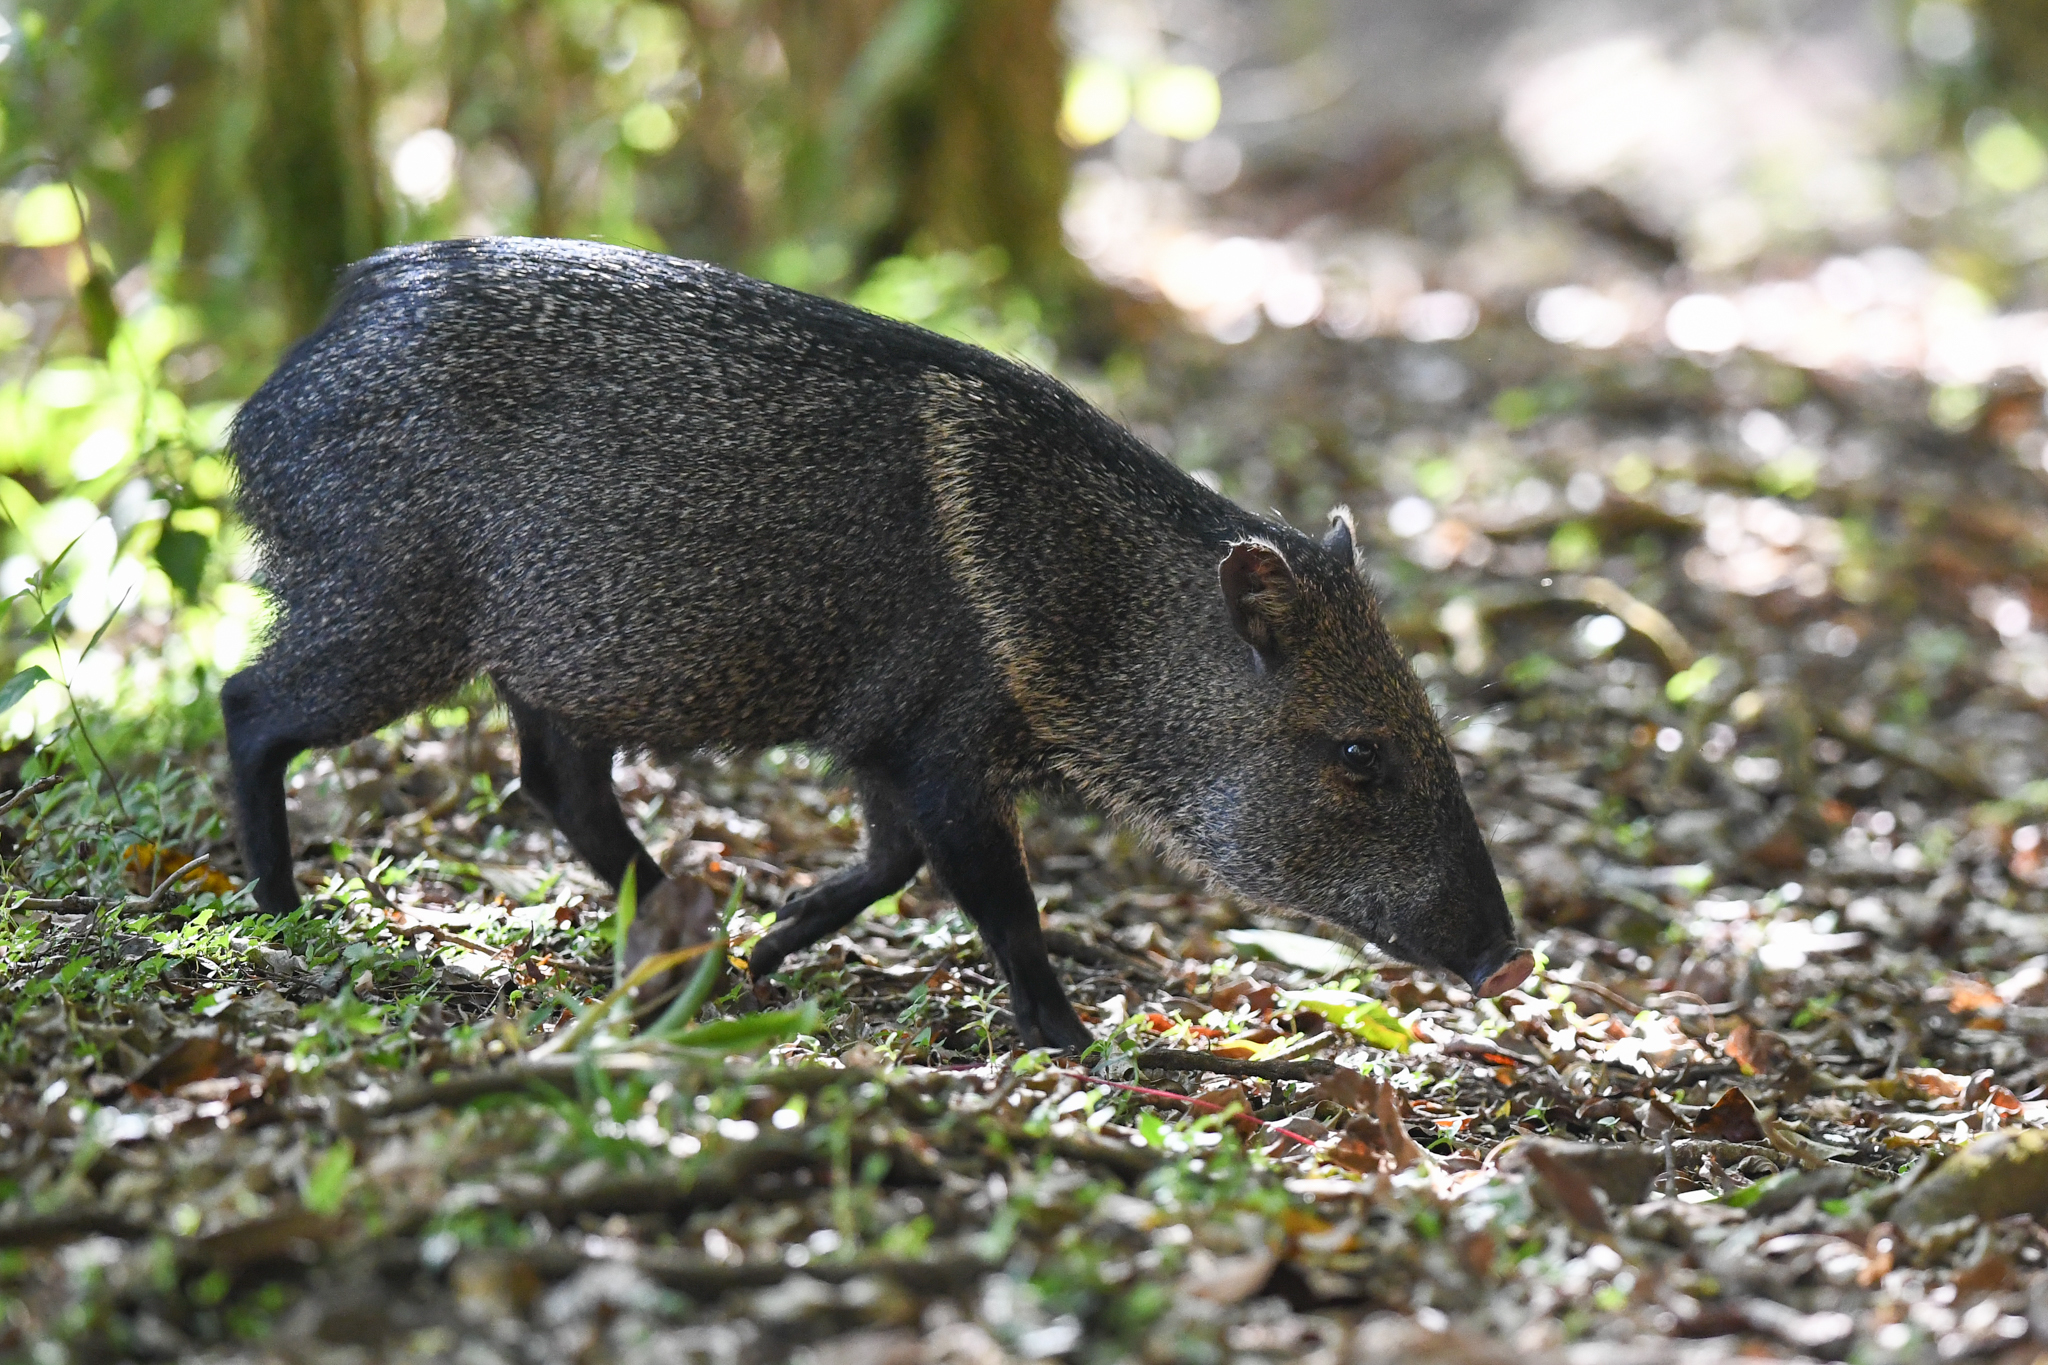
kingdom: Animalia
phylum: Chordata
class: Mammalia
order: Artiodactyla
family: Tayassuidae
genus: Pecari
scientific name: Pecari tajacu
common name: Collared peccary
